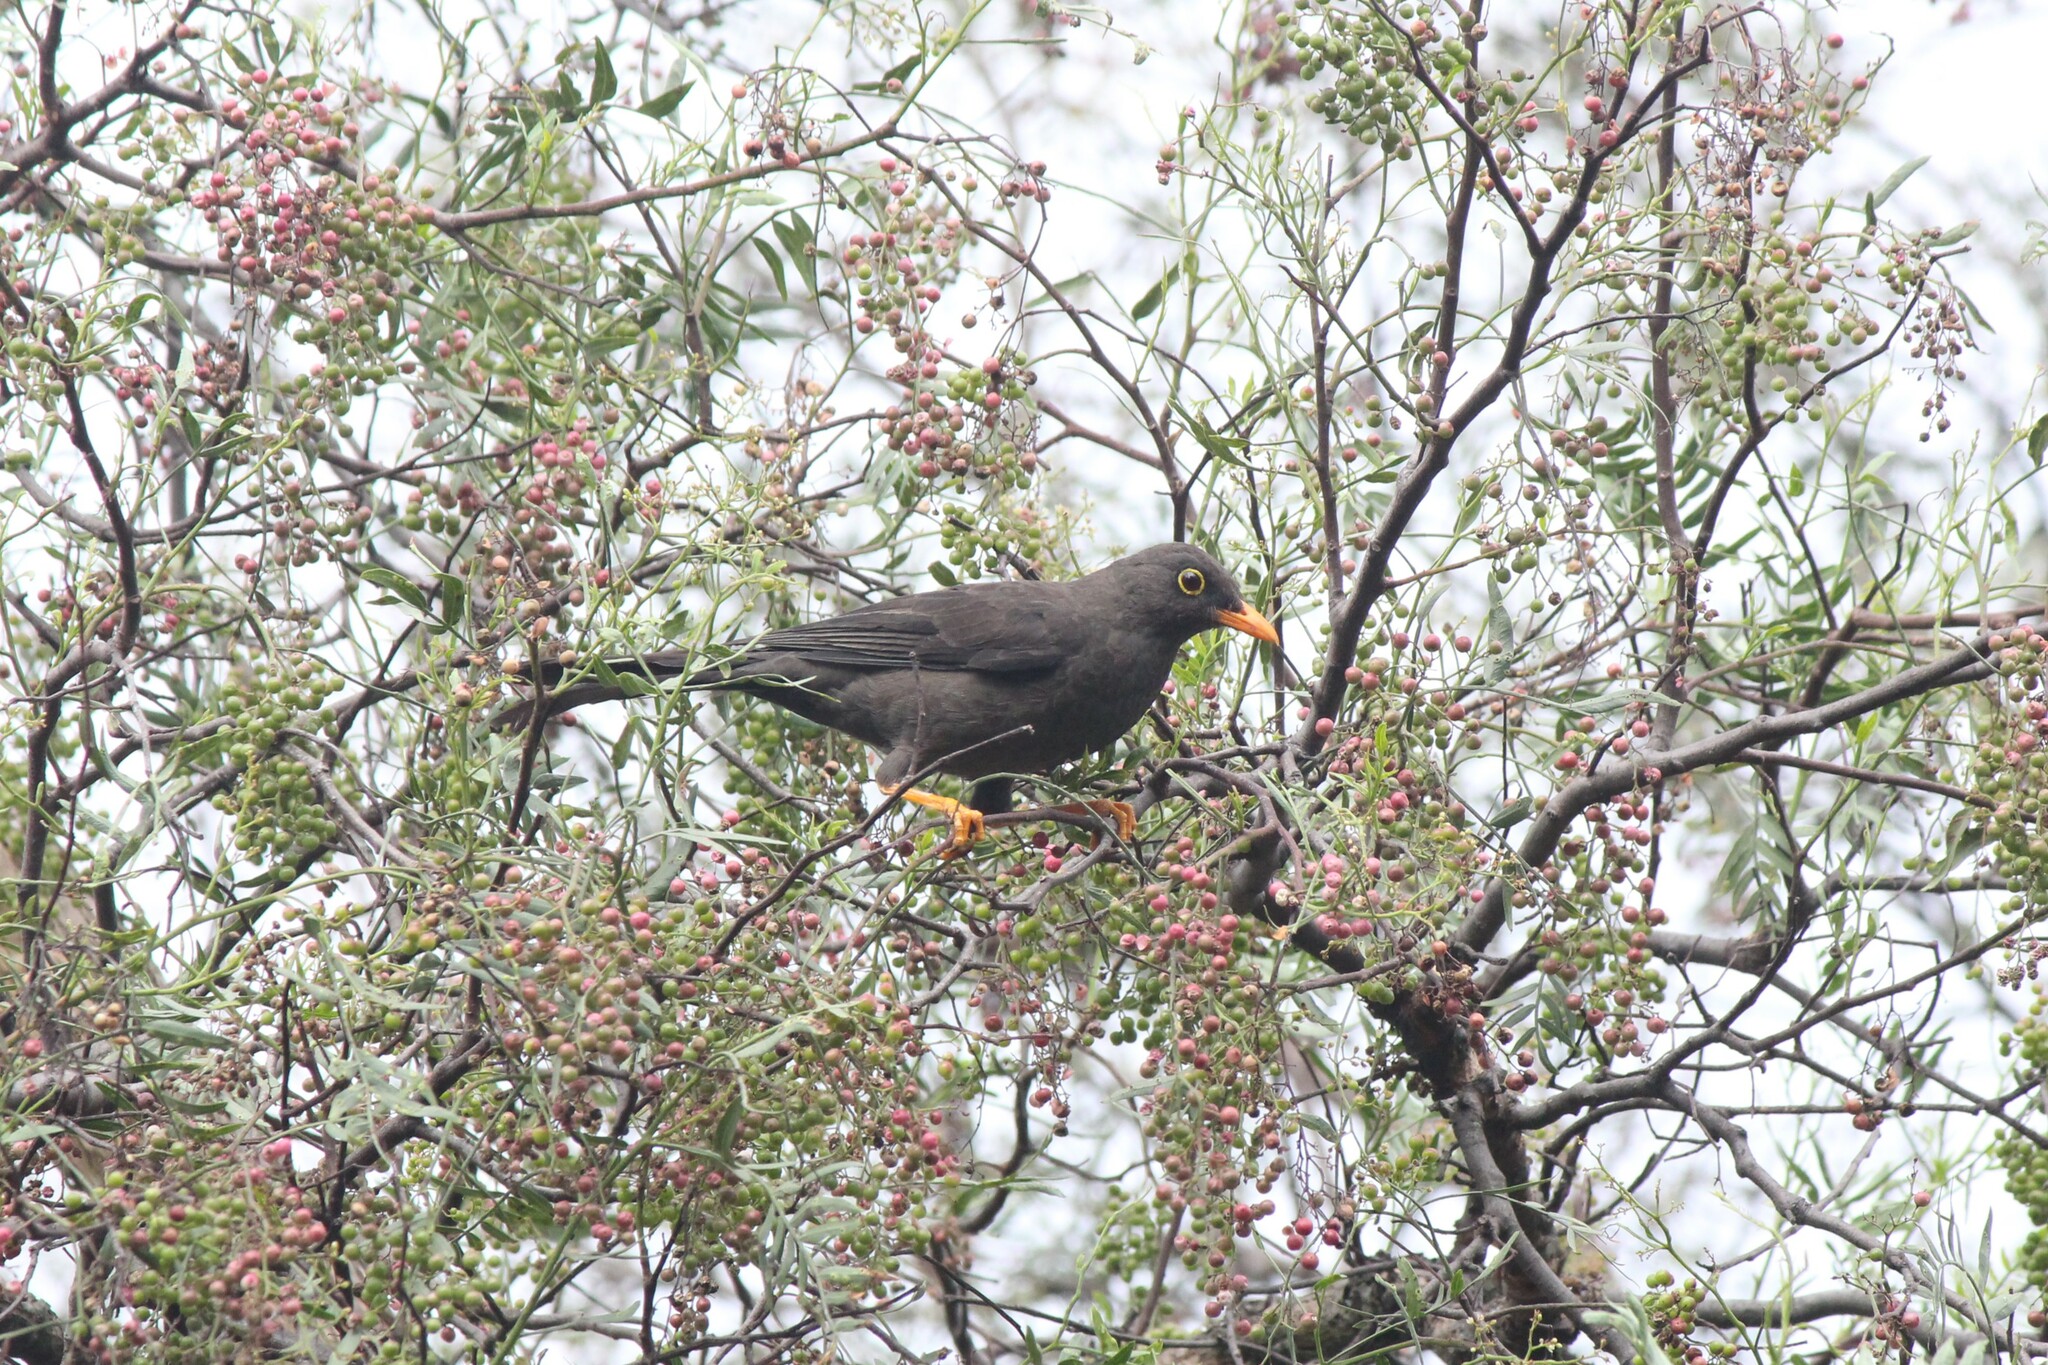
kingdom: Animalia
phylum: Chordata
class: Aves
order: Passeriformes
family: Turdidae
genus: Turdus
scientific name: Turdus fuscater
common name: Great thrush
